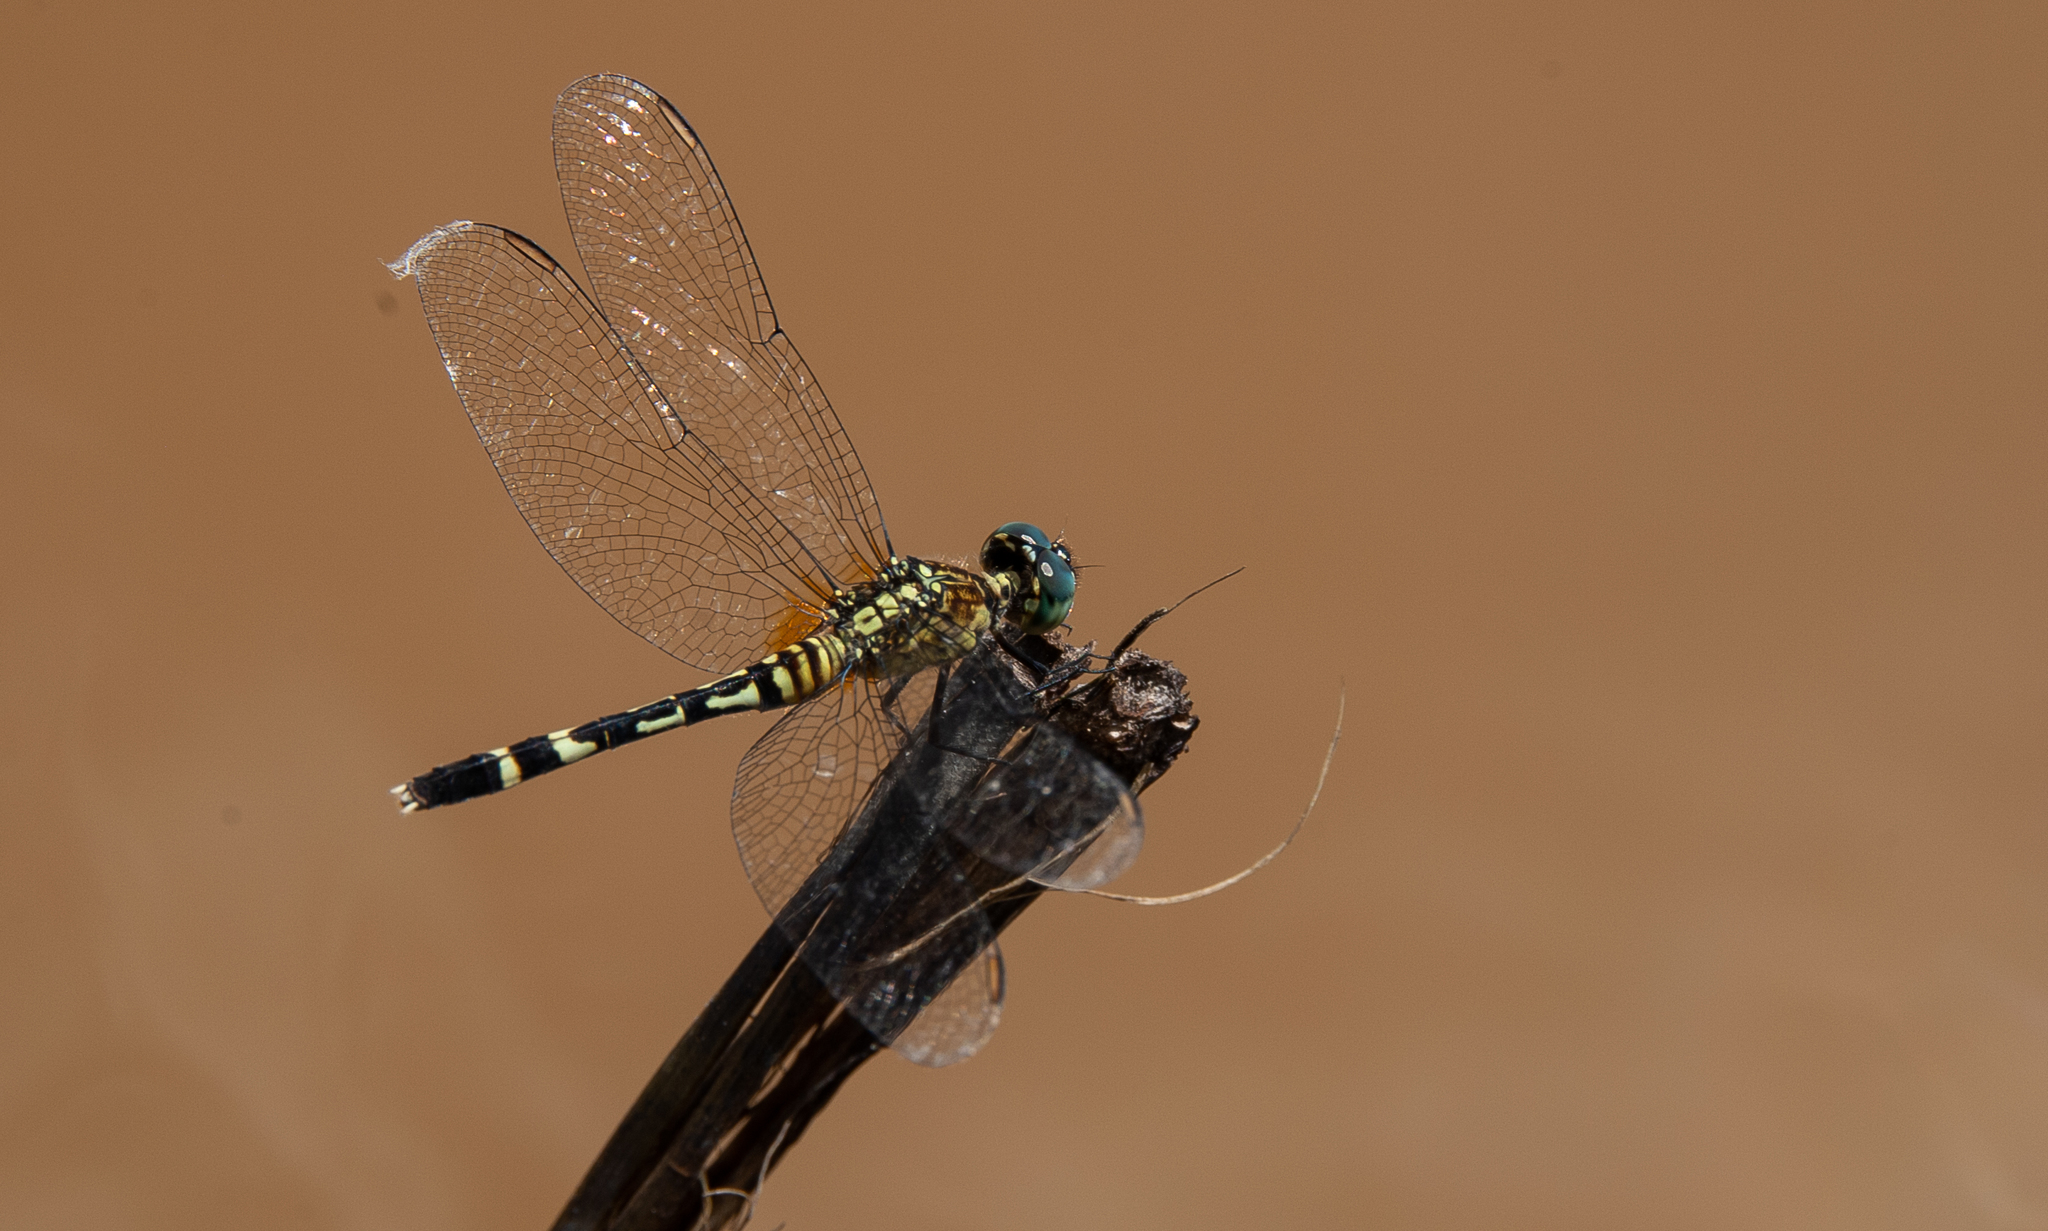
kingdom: Animalia
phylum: Arthropoda
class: Insecta
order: Odonata
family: Libellulidae
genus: Erythrodiplax
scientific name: Erythrodiplax attenuata
